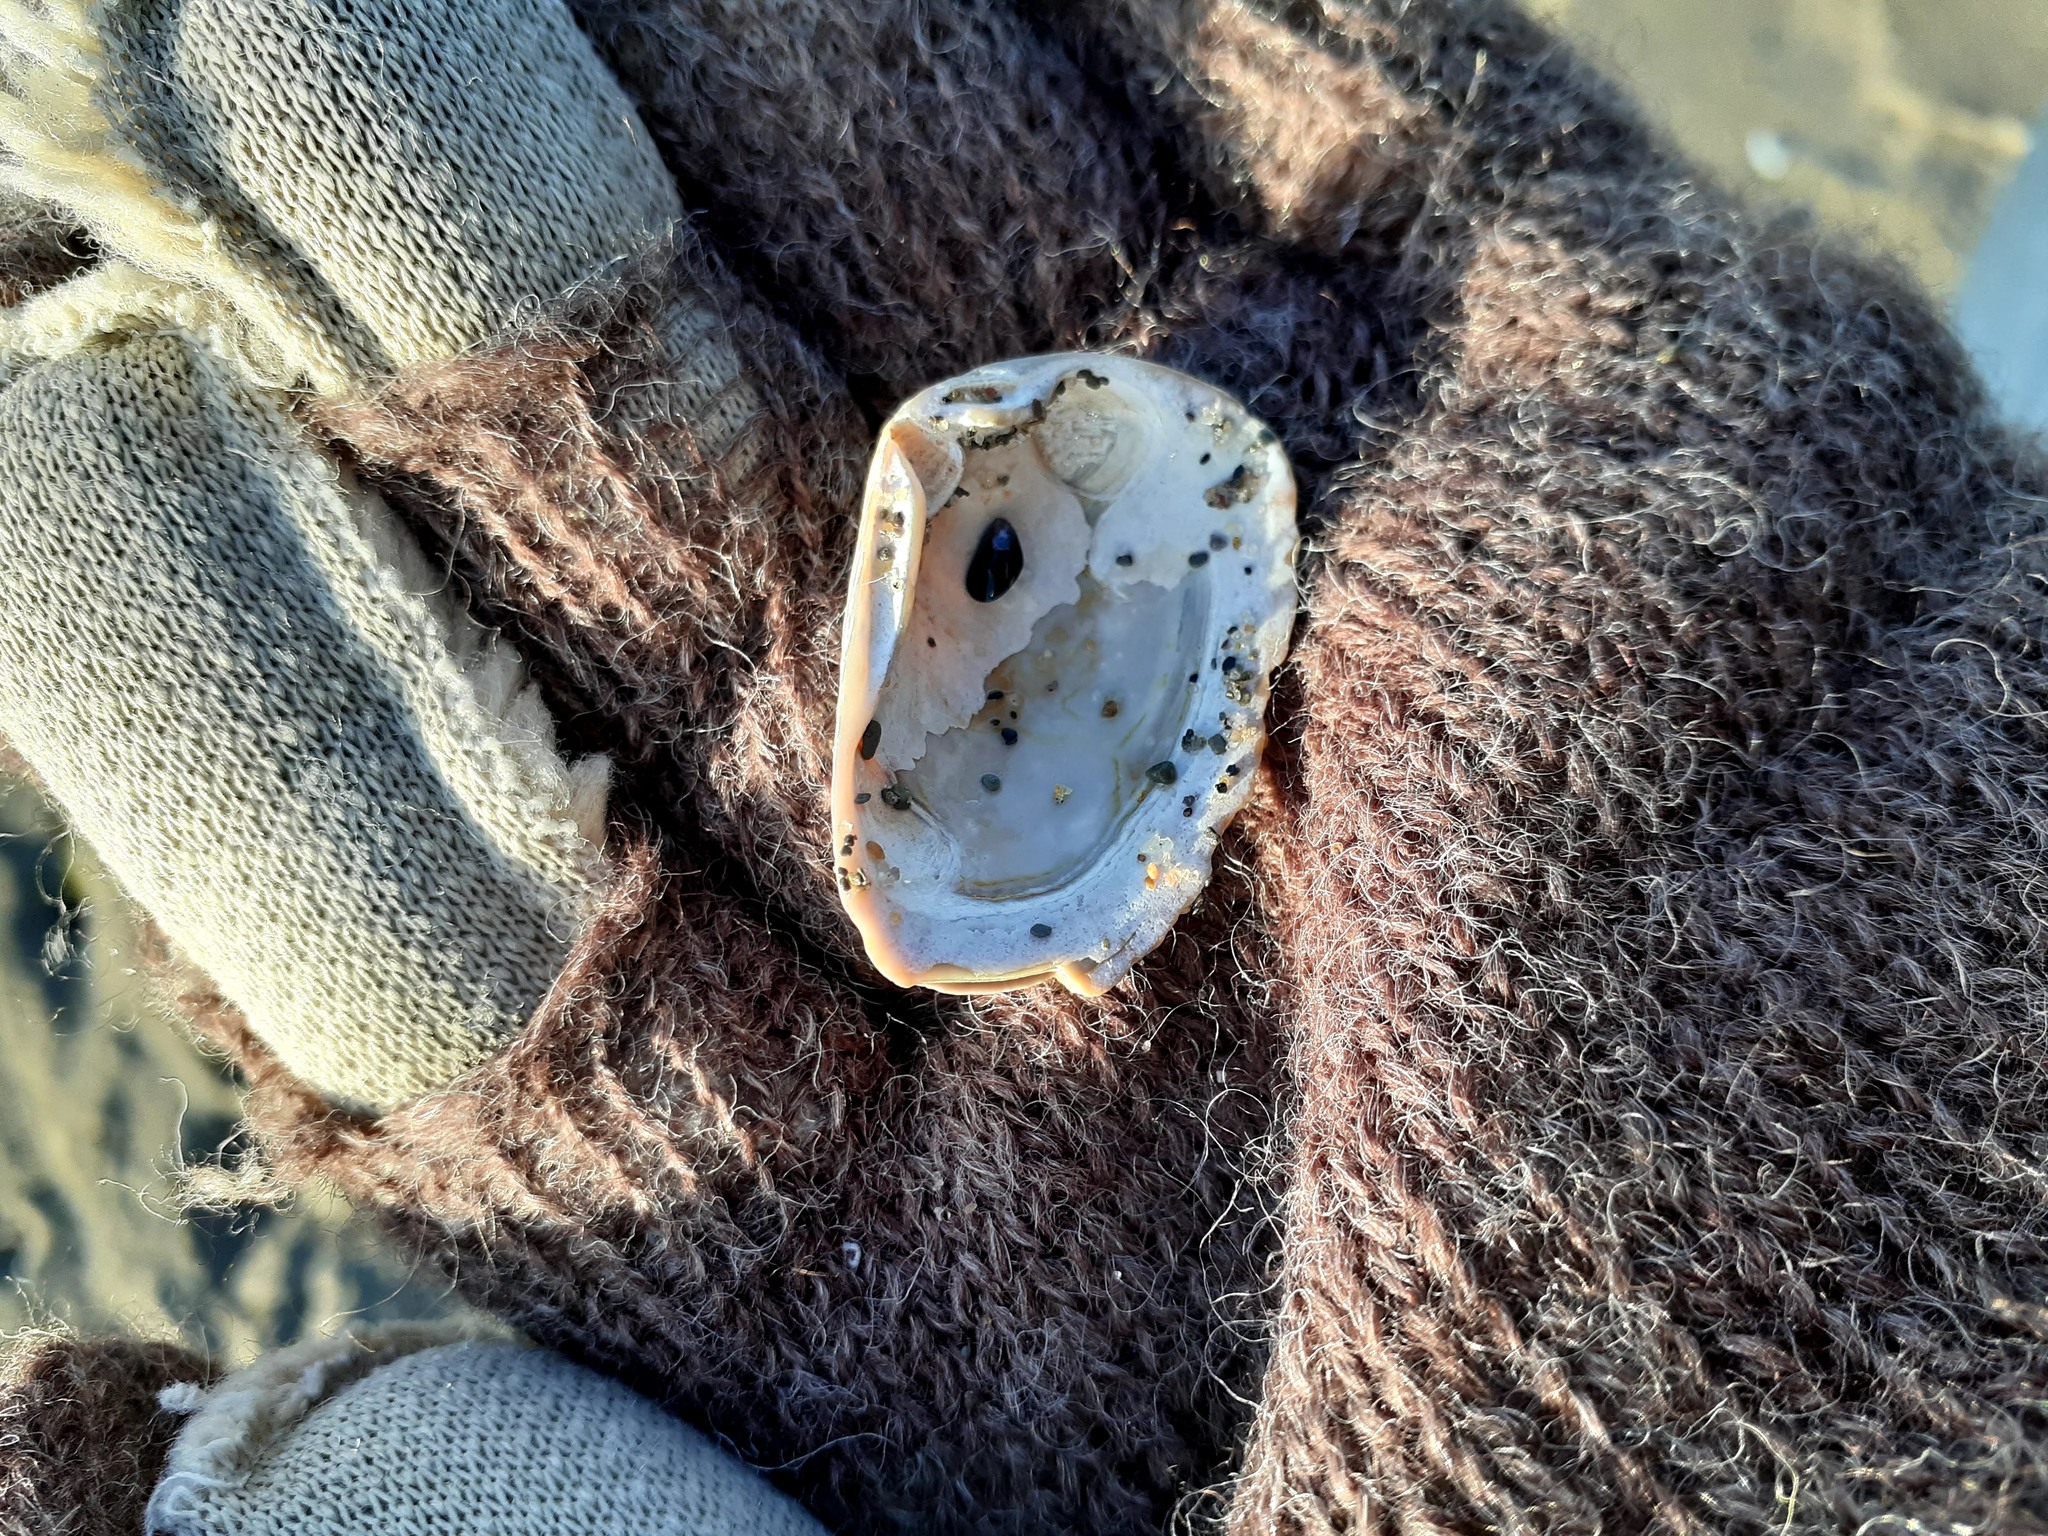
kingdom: Animalia
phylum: Mollusca
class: Bivalvia
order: Venerida
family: Mesodesmatidae
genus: Mesodesma
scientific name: Mesodesma arctatum
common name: Compressed clam
